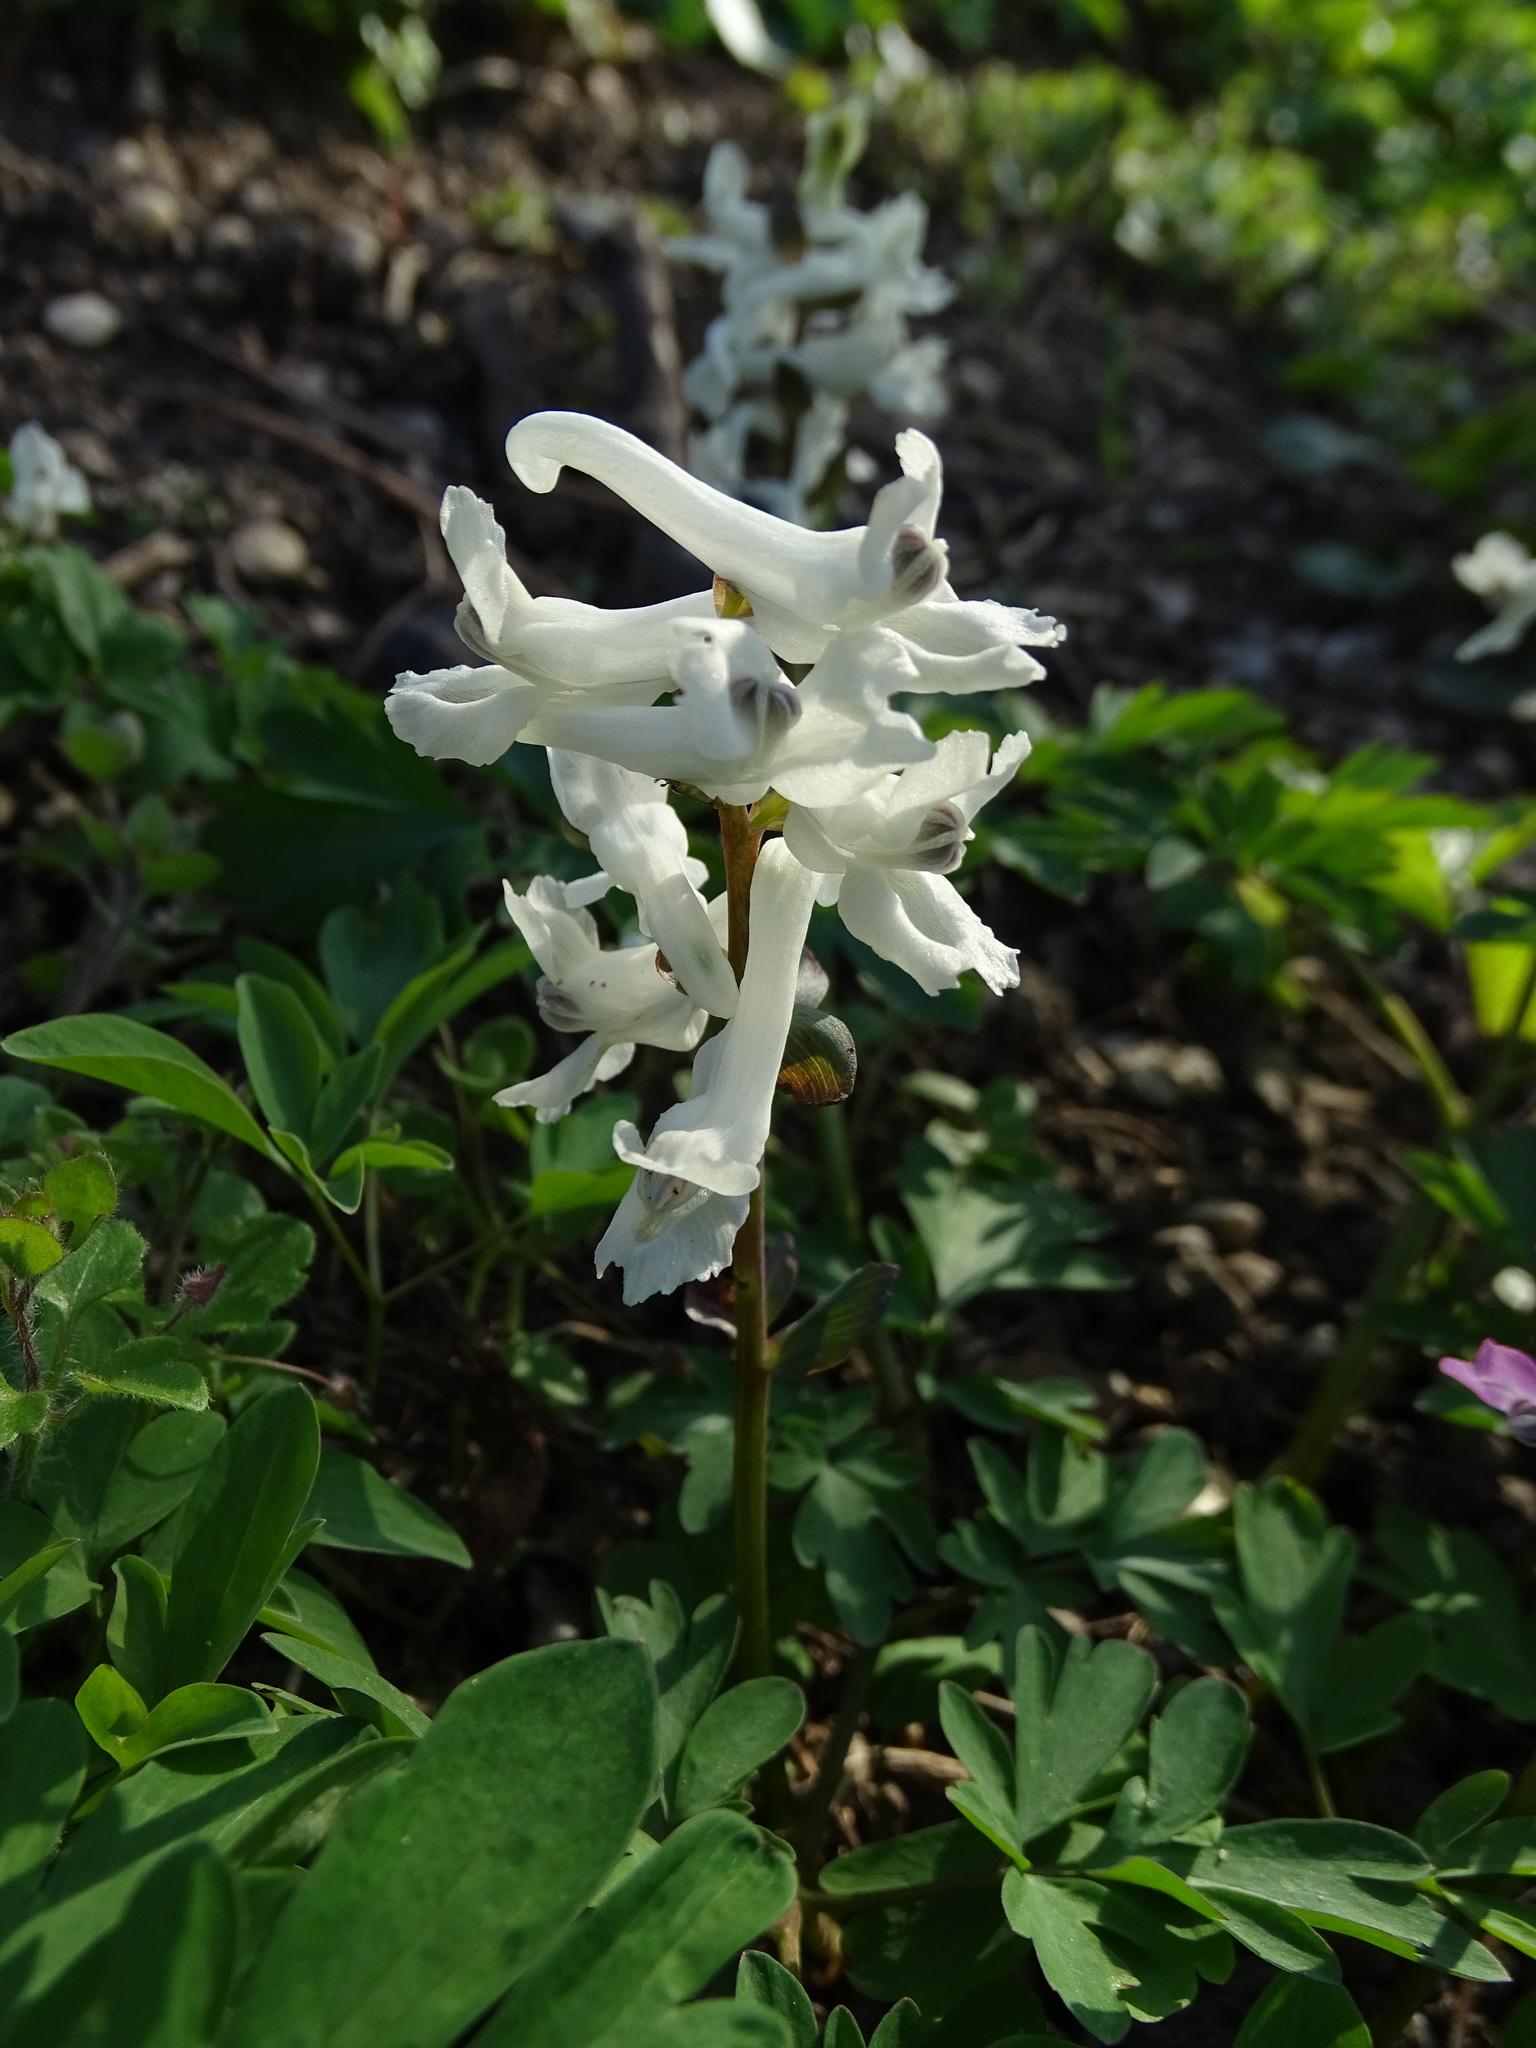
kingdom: Plantae
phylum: Tracheophyta
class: Magnoliopsida
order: Ranunculales
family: Papaveraceae
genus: Corydalis
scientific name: Corydalis cava
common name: Hollowroot
